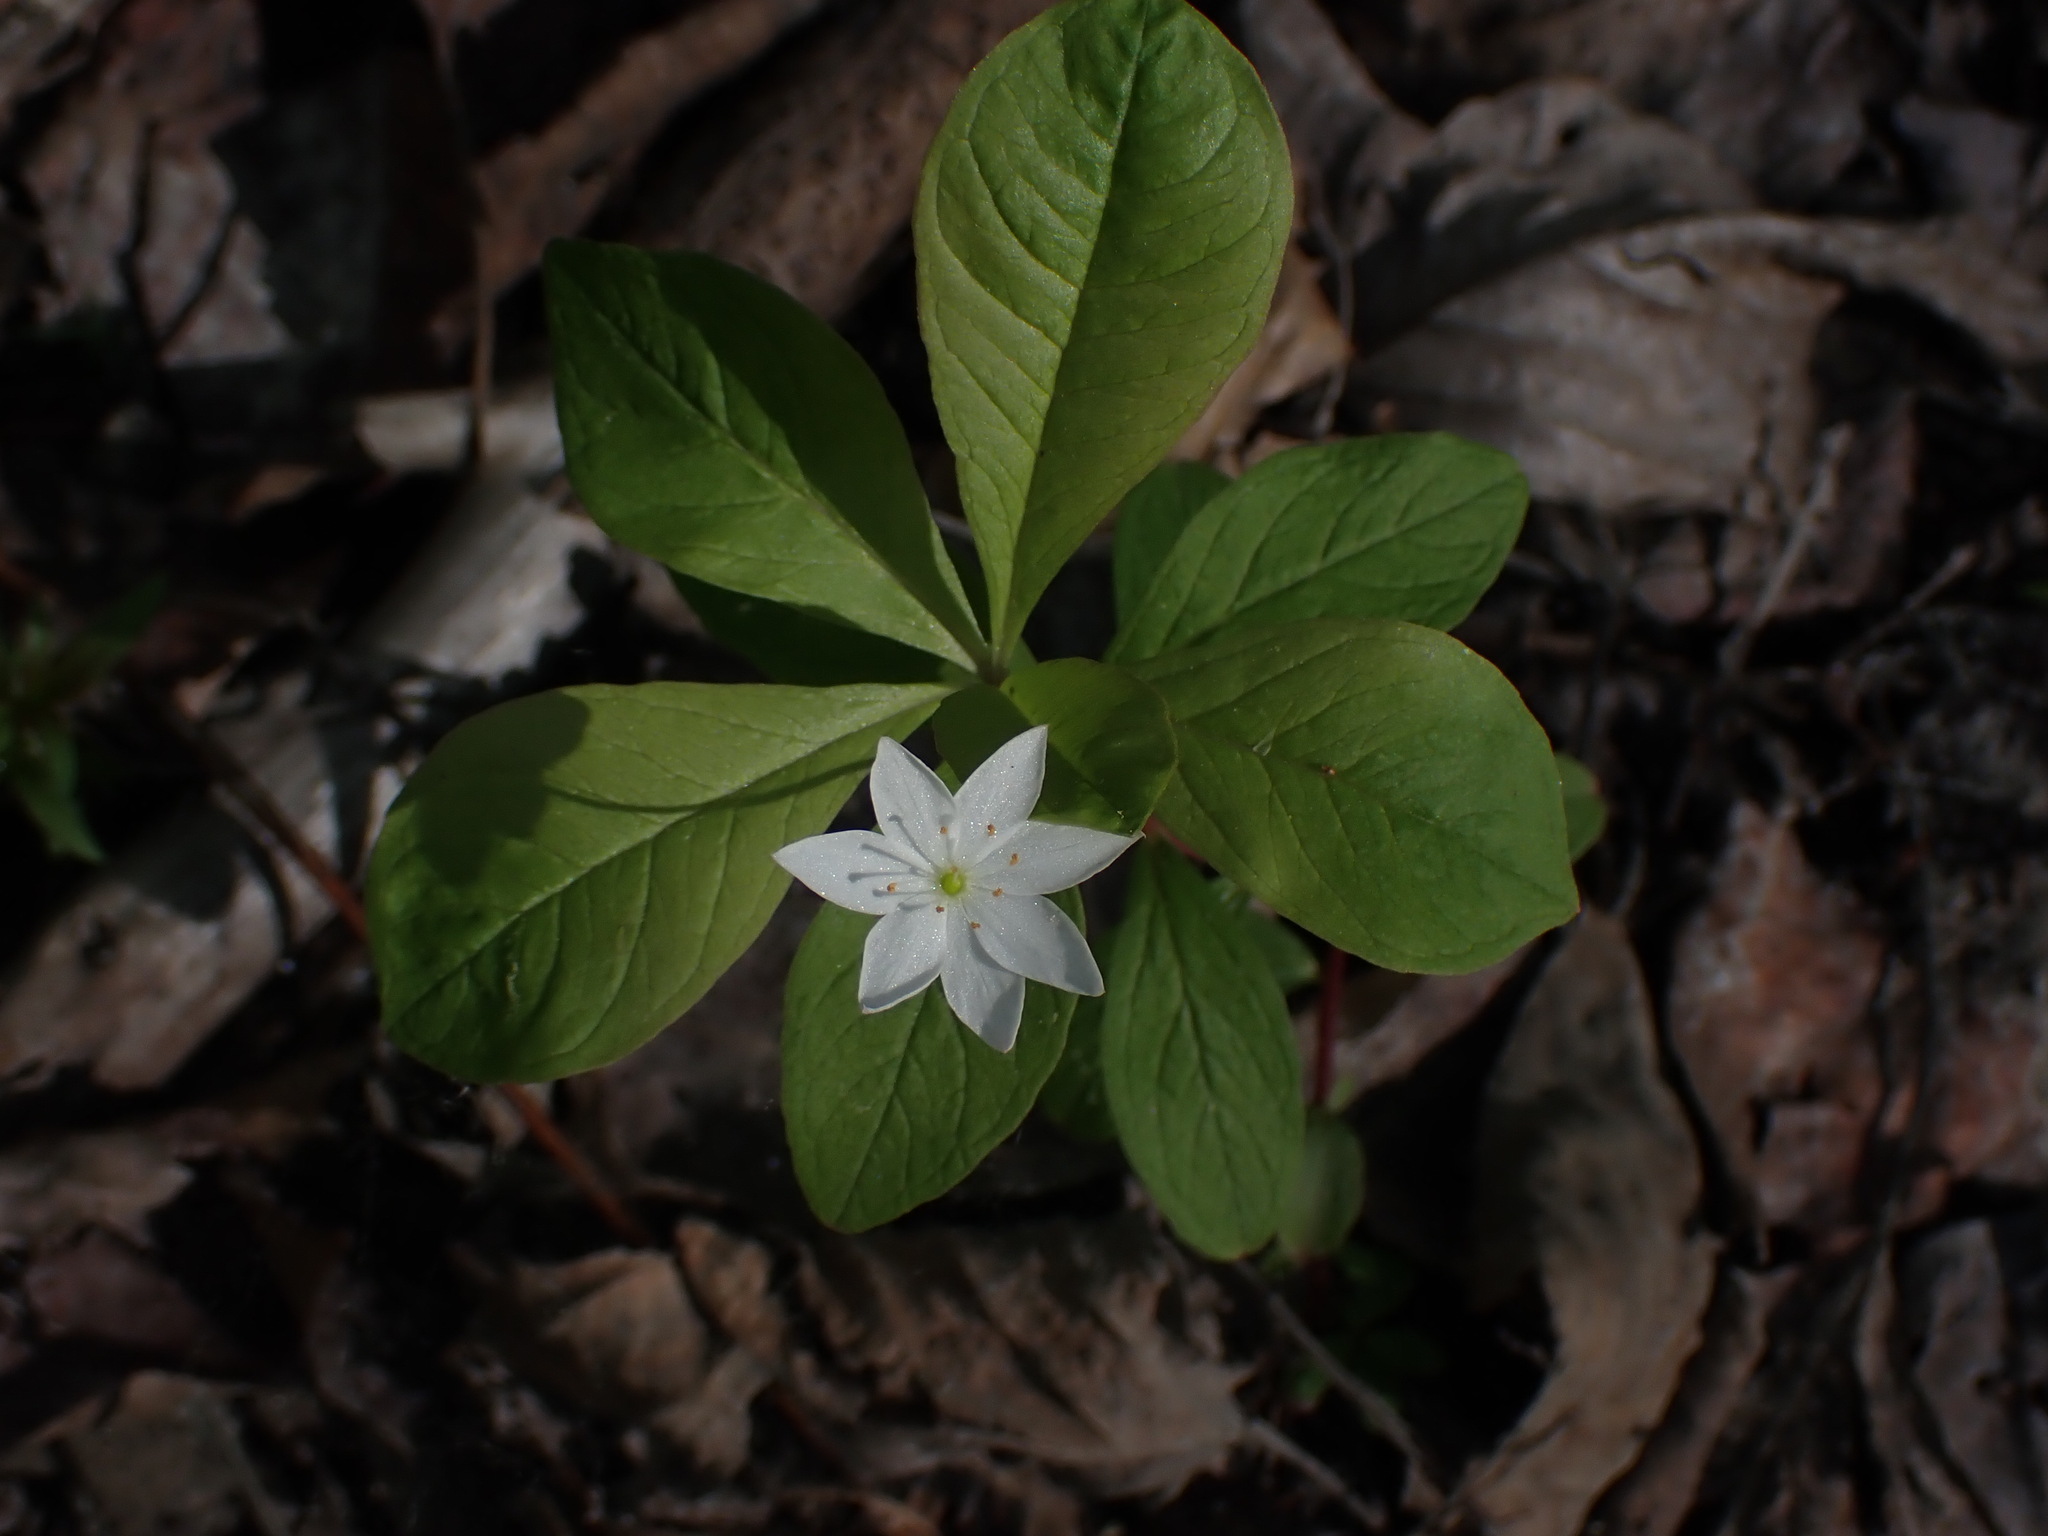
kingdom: Plantae
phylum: Tracheophyta
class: Magnoliopsida
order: Ericales
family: Primulaceae
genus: Lysimachia
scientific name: Lysimachia europaea
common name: Arctic starflower
